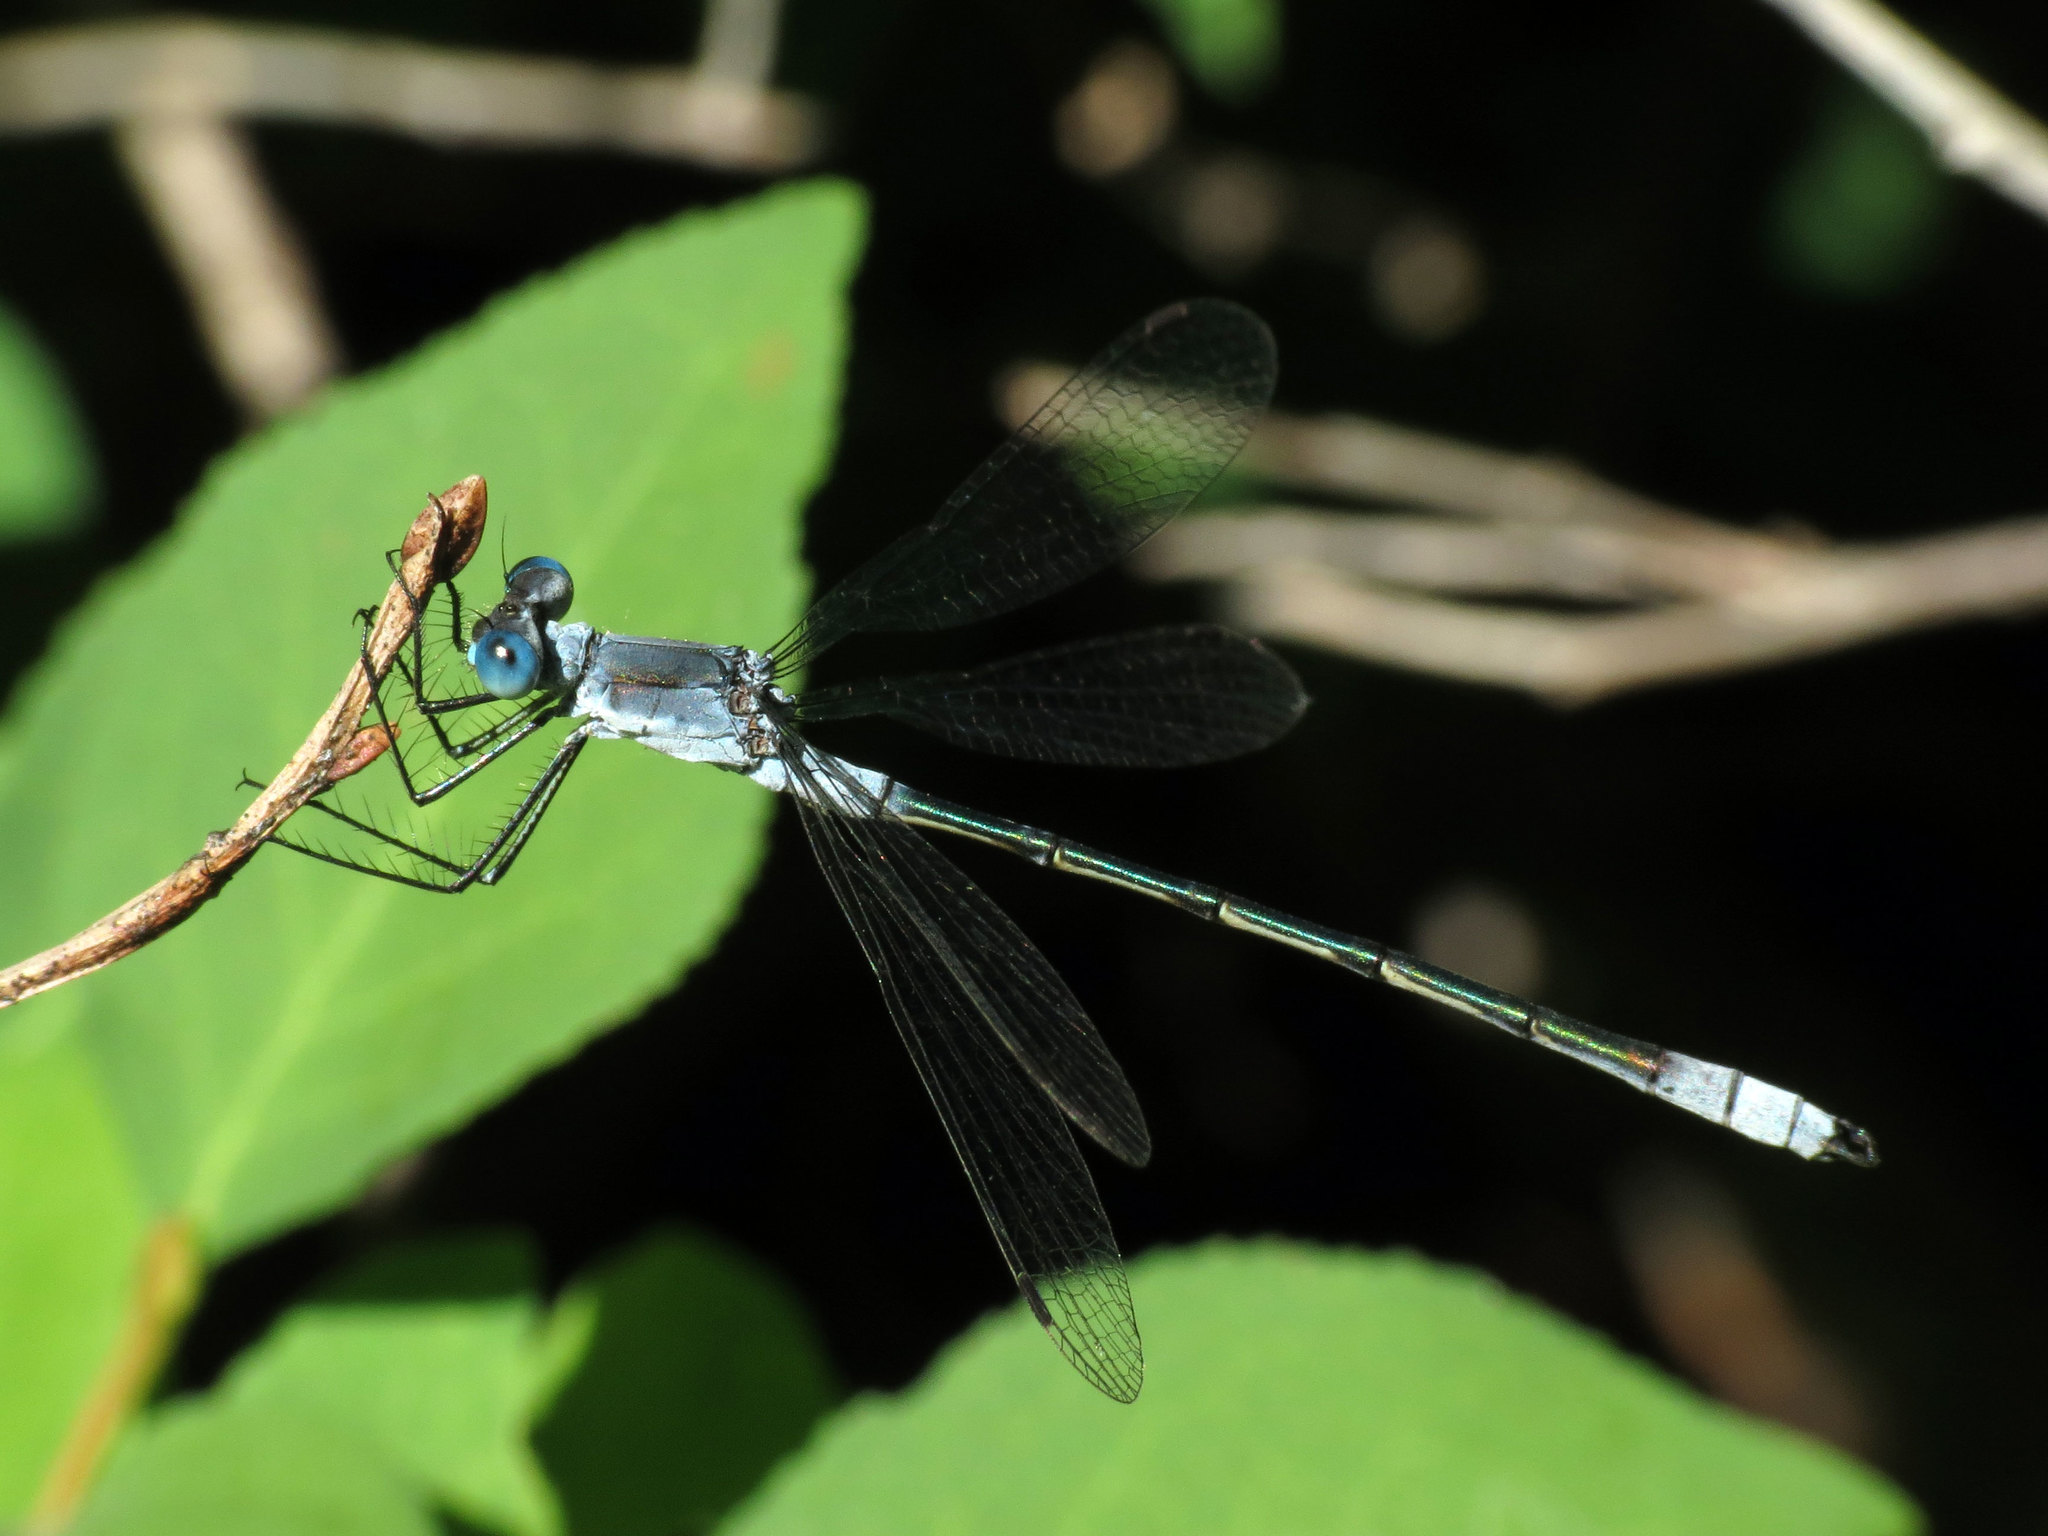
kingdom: Animalia
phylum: Arthropoda
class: Insecta
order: Odonata
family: Lestidae
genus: Lestes
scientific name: Lestes disjunctus
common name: Northern spreadwing
